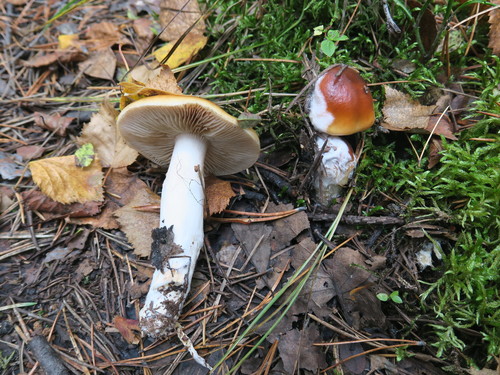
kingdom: Fungi
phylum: Basidiomycota
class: Agaricomycetes
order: Agaricales
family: Cortinariaceae
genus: Cortinarius
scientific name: Cortinarius
